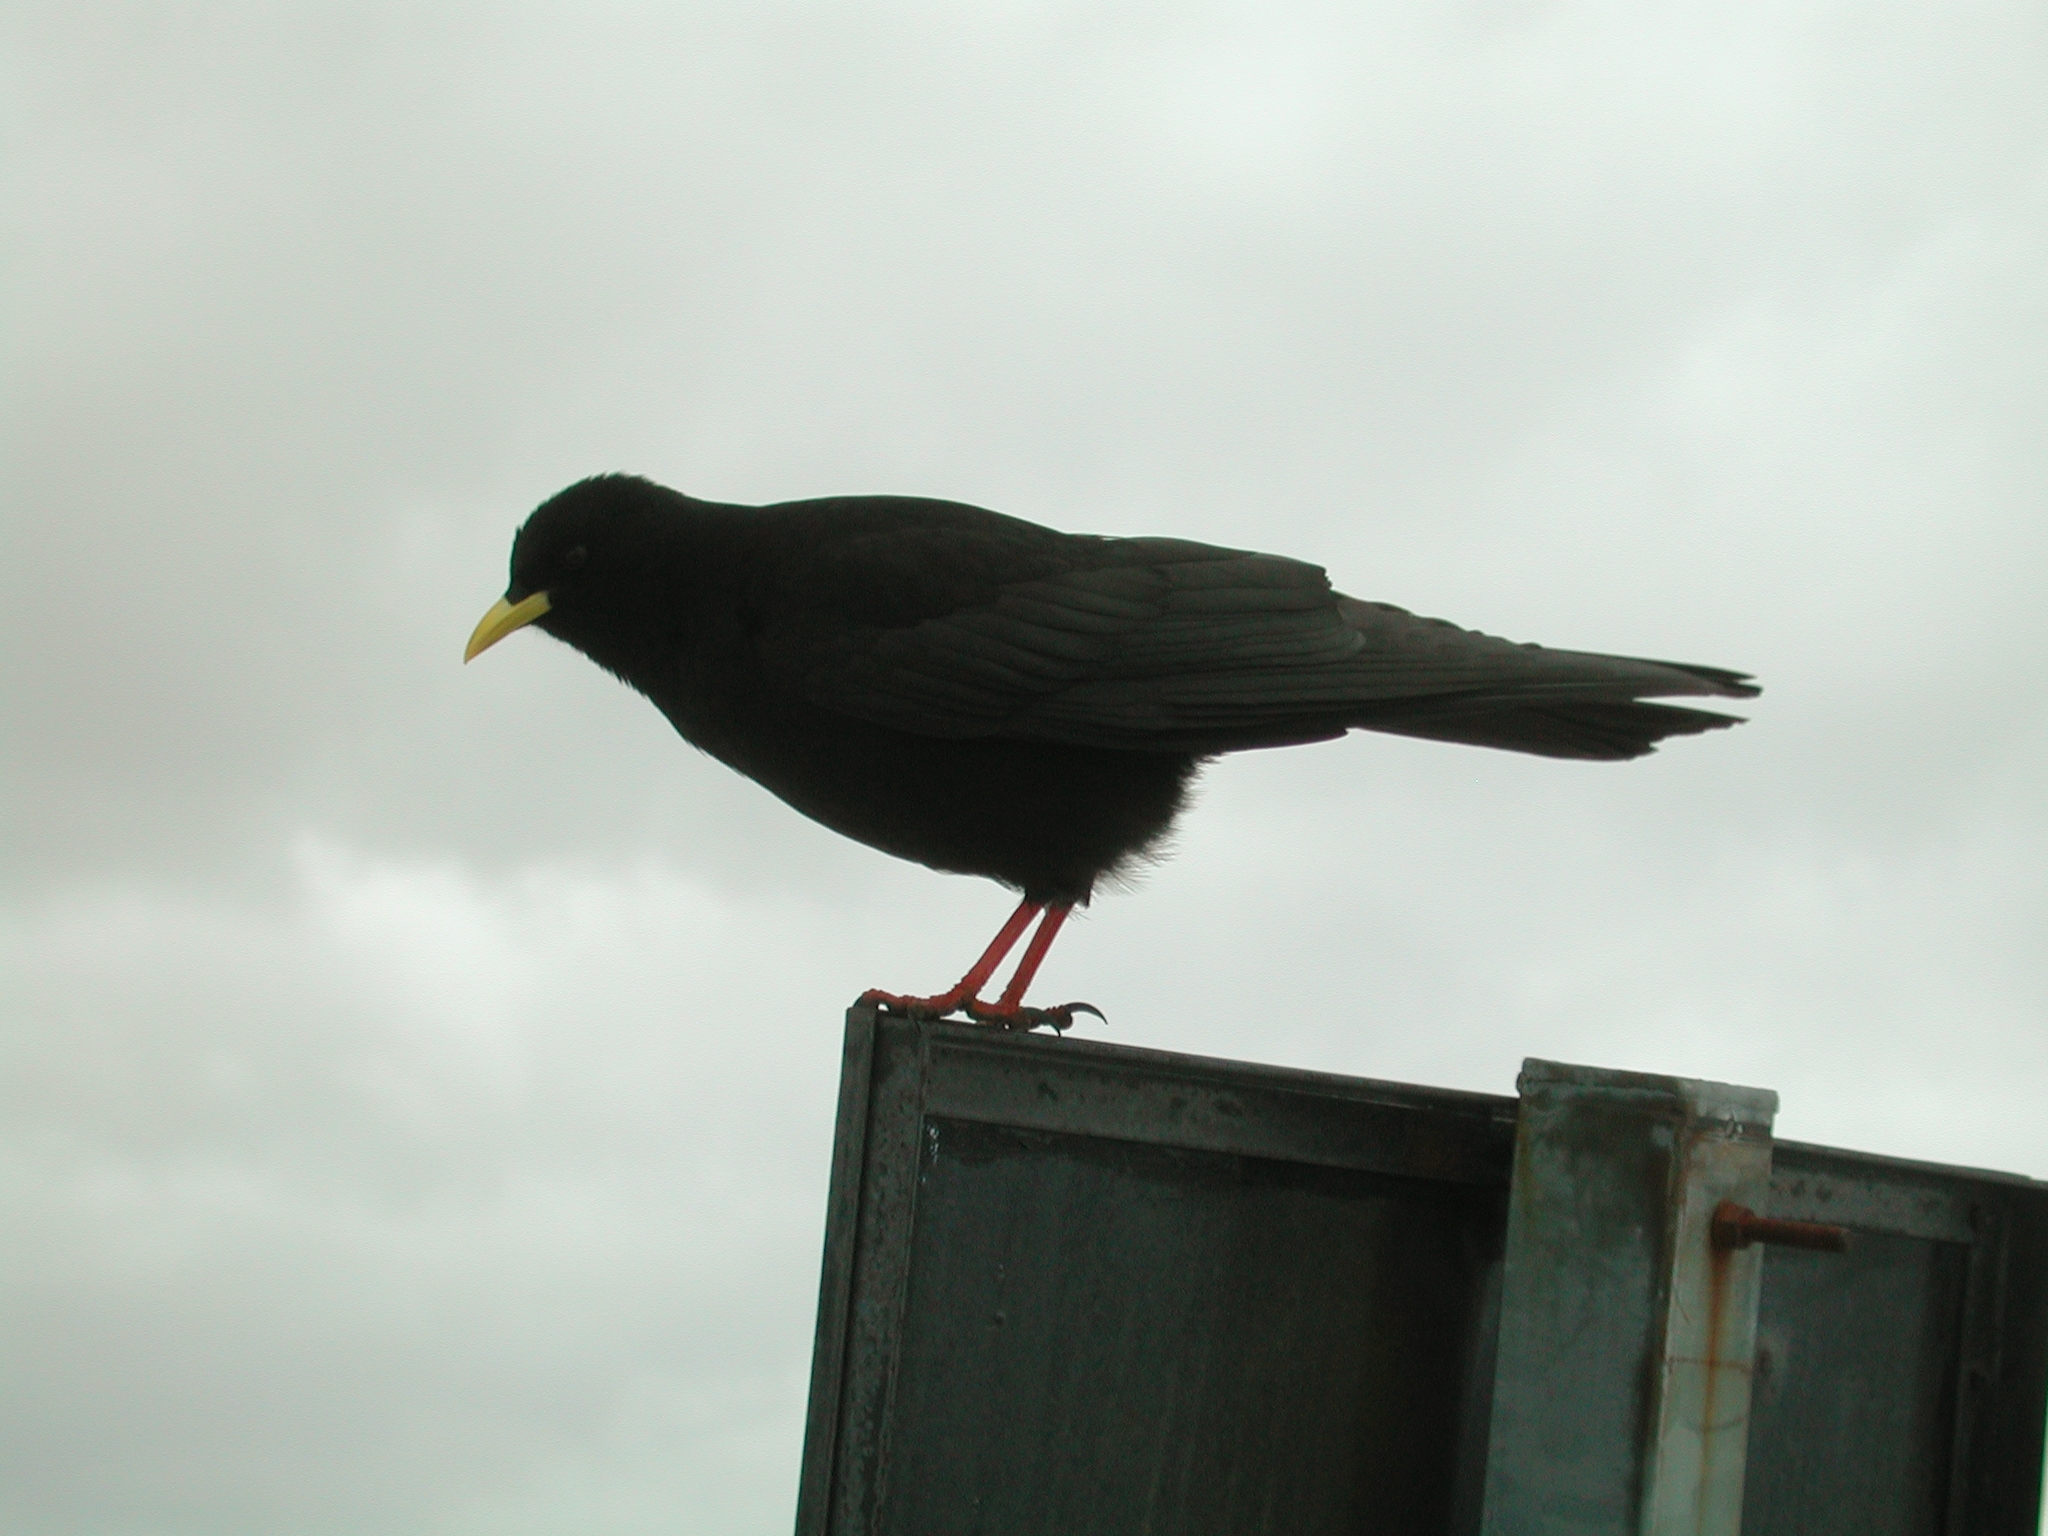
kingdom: Animalia
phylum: Chordata
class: Aves
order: Passeriformes
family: Corvidae
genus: Pyrrhocorax
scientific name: Pyrrhocorax graculus
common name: Alpine chough
